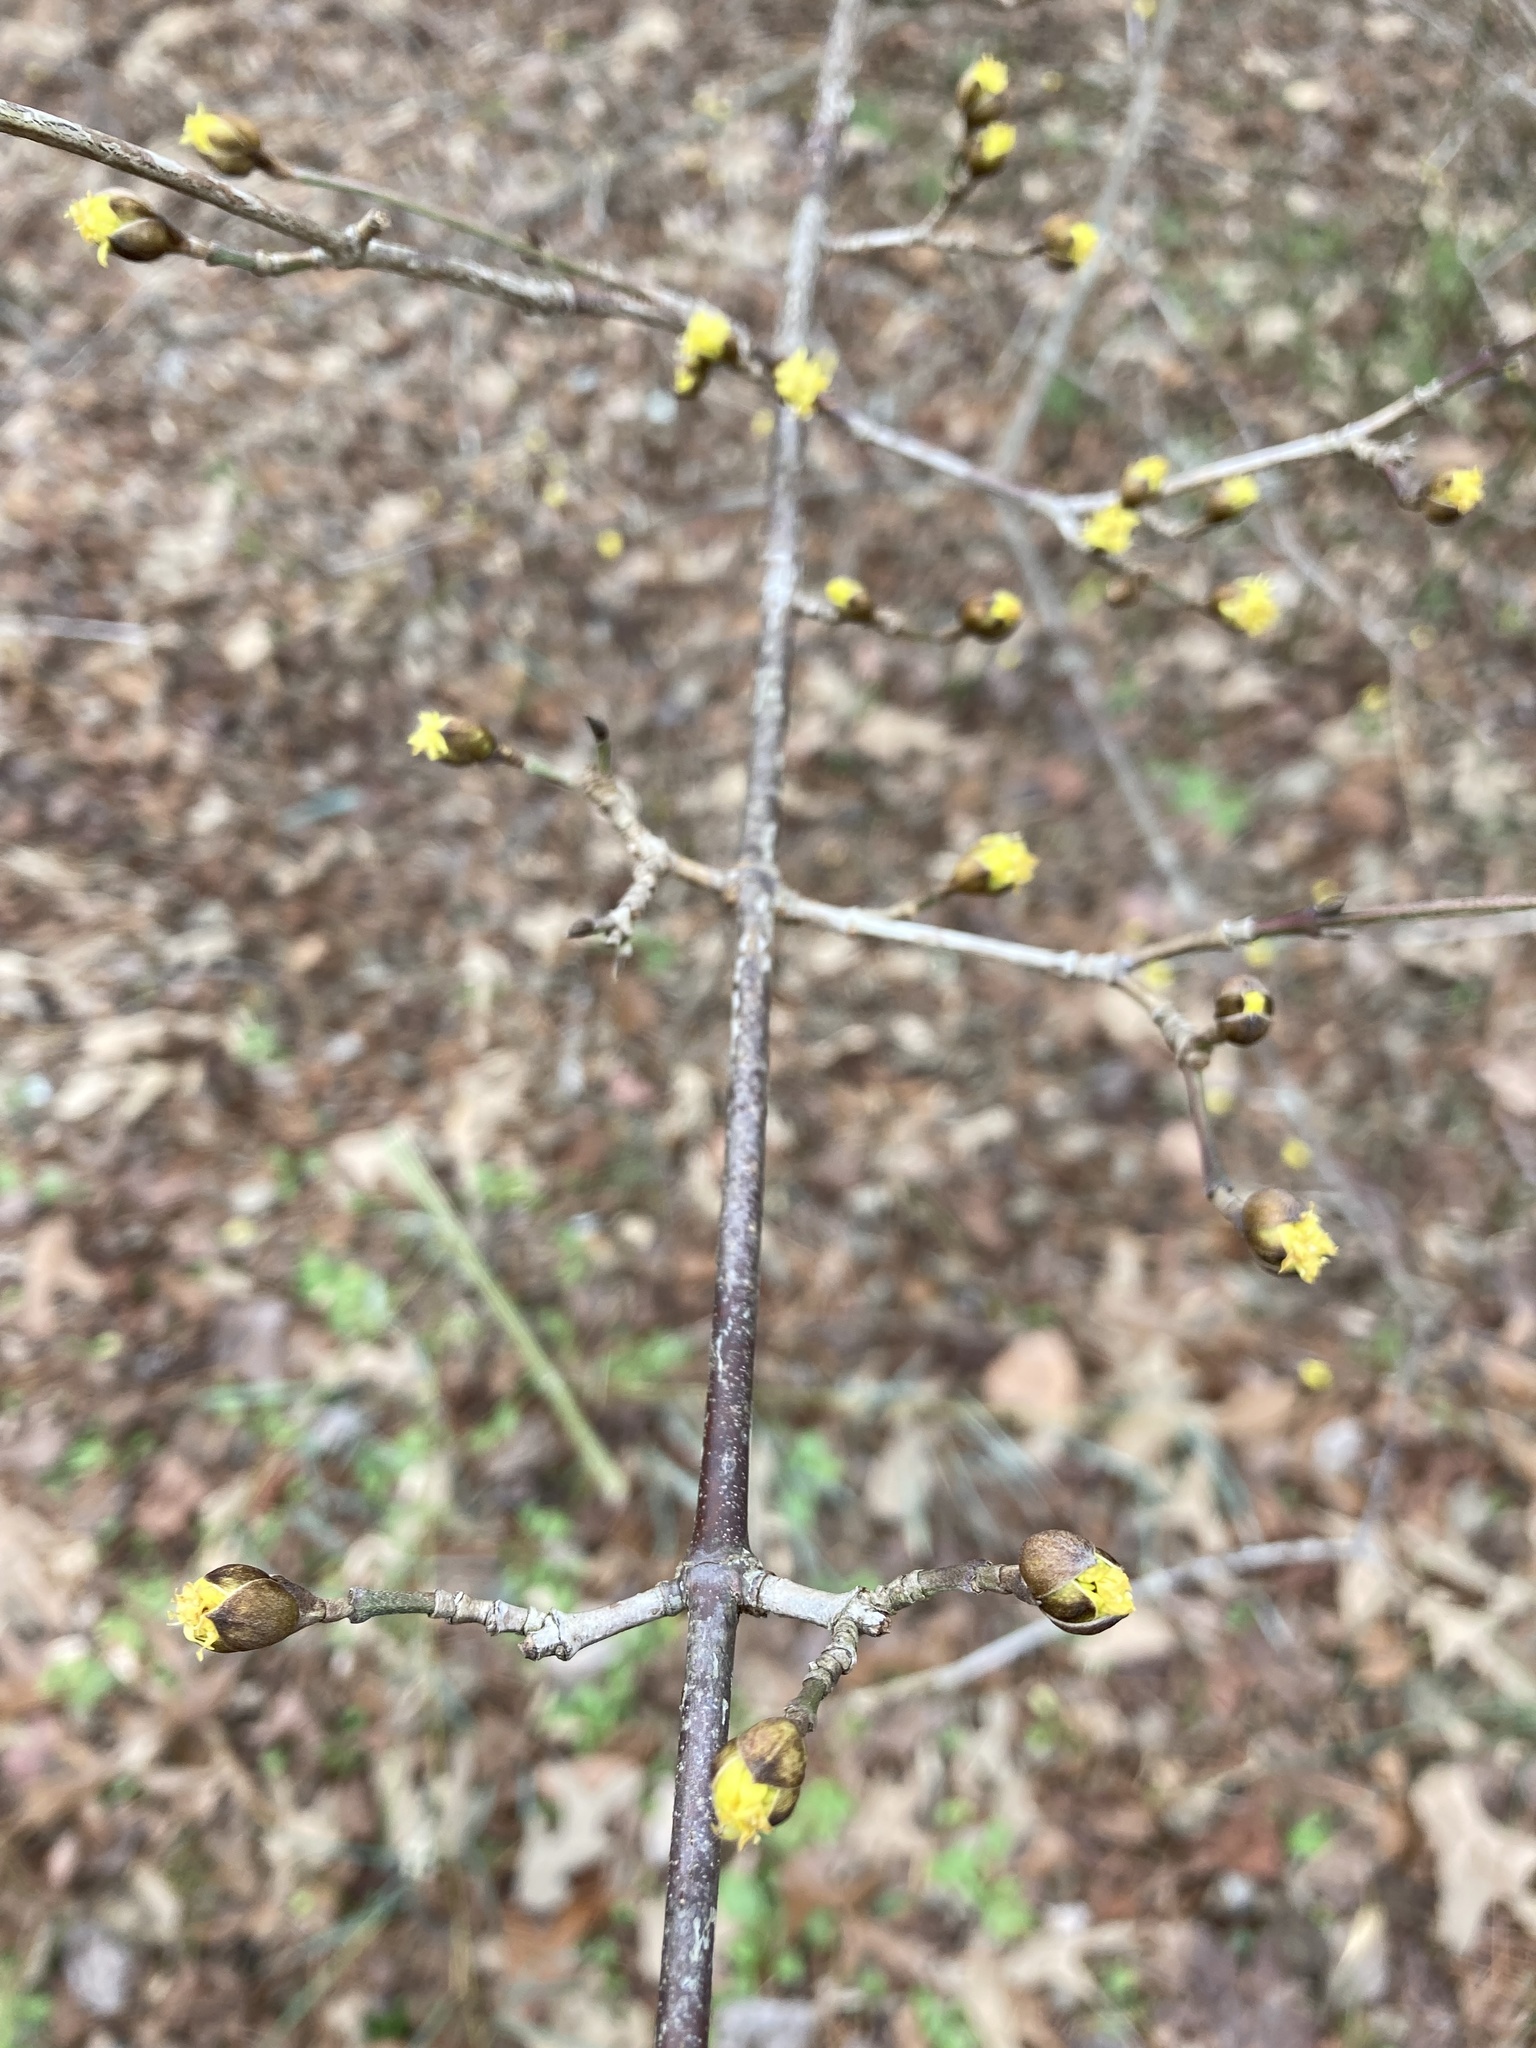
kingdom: Plantae
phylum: Tracheophyta
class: Magnoliopsida
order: Cornales
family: Cornaceae
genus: Cornus
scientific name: Cornus mas
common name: Cornelian-cherry
